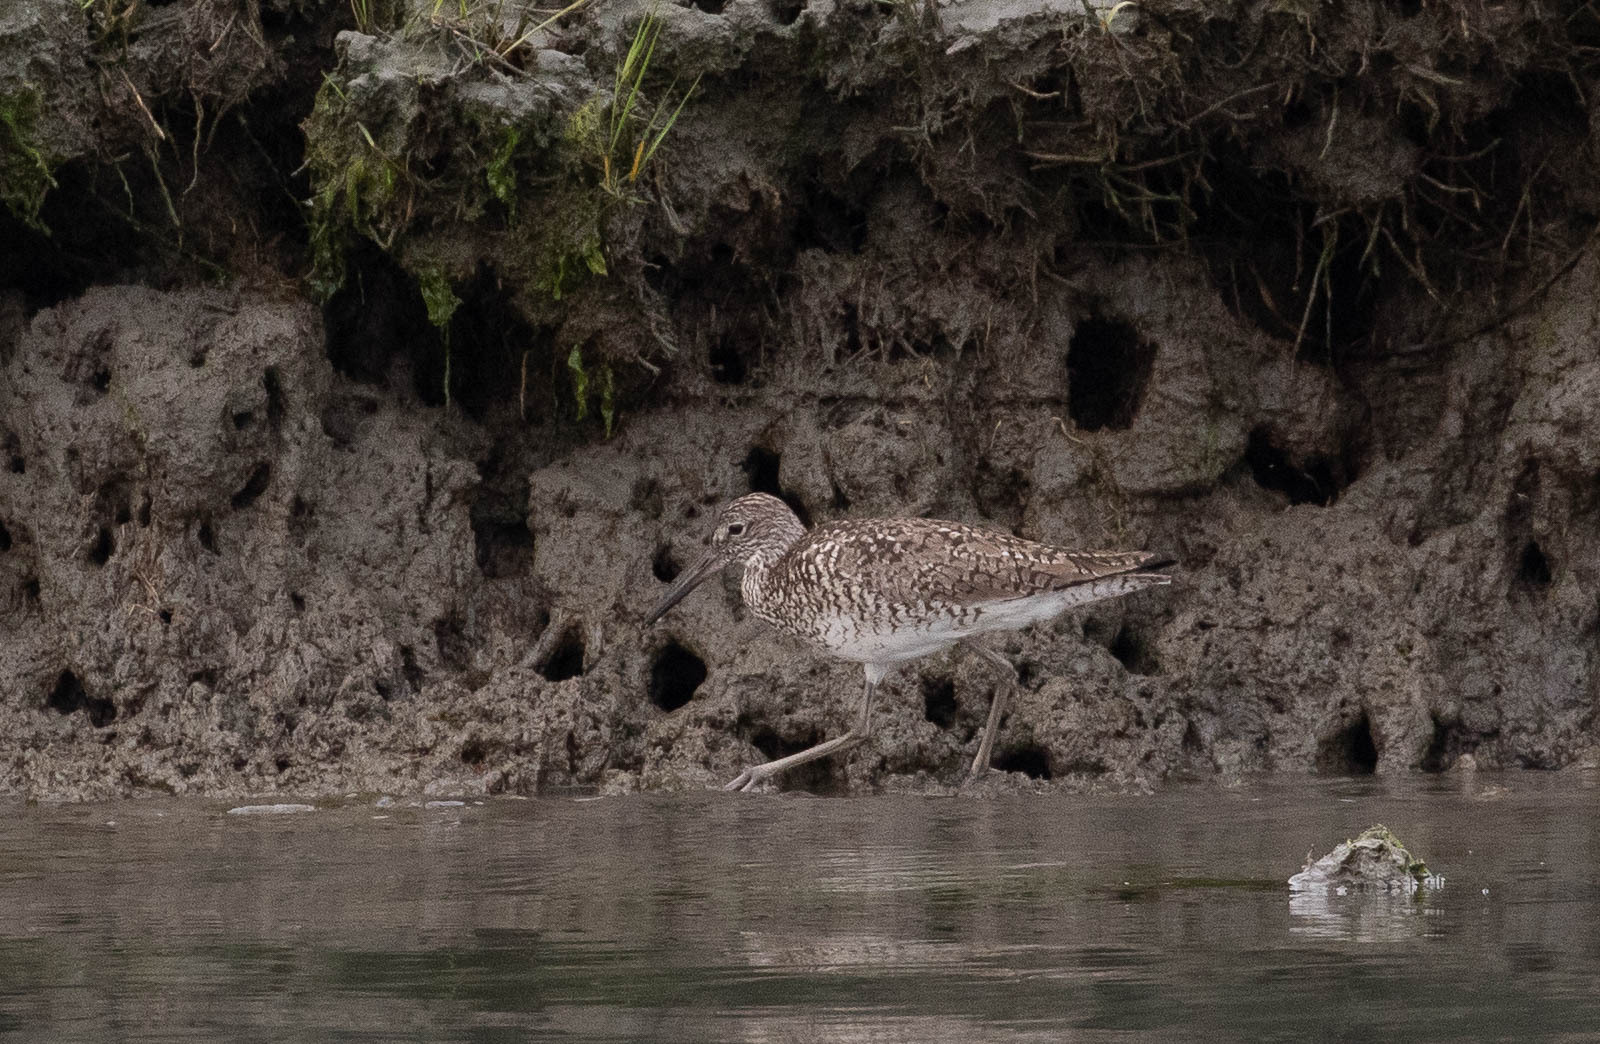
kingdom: Animalia
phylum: Chordata
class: Aves
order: Charadriiformes
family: Scolopacidae
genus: Tringa
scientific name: Tringa semipalmata
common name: Willet
